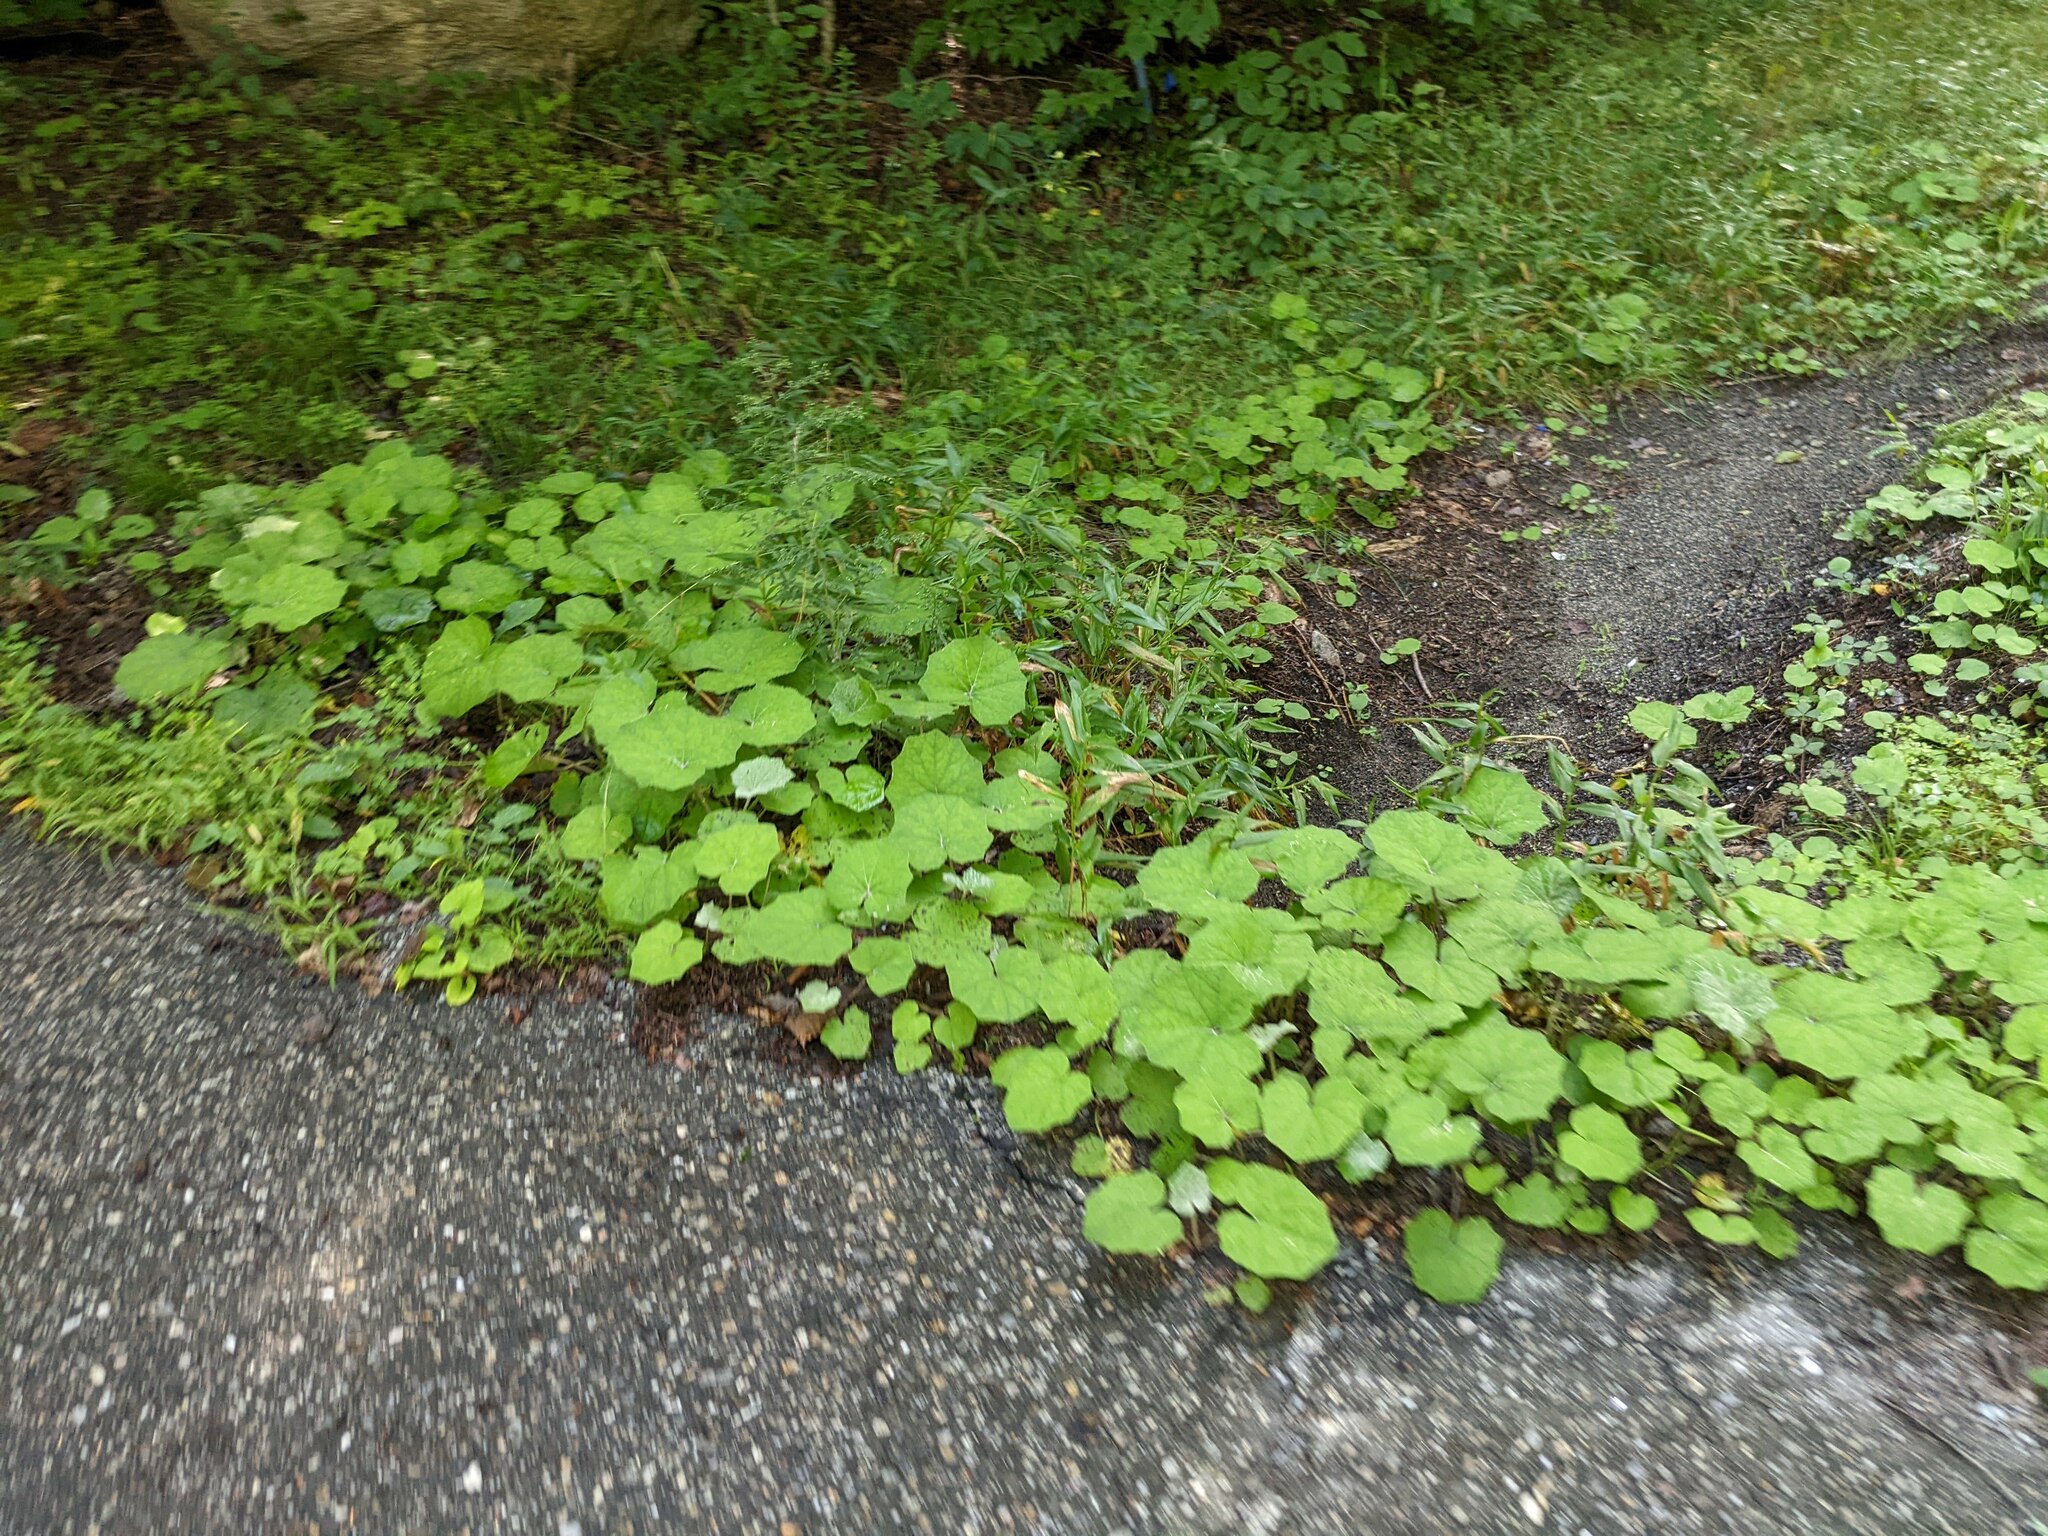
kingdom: Plantae
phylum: Tracheophyta
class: Magnoliopsida
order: Asterales
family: Asteraceae
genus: Tussilago
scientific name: Tussilago farfara
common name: Coltsfoot
